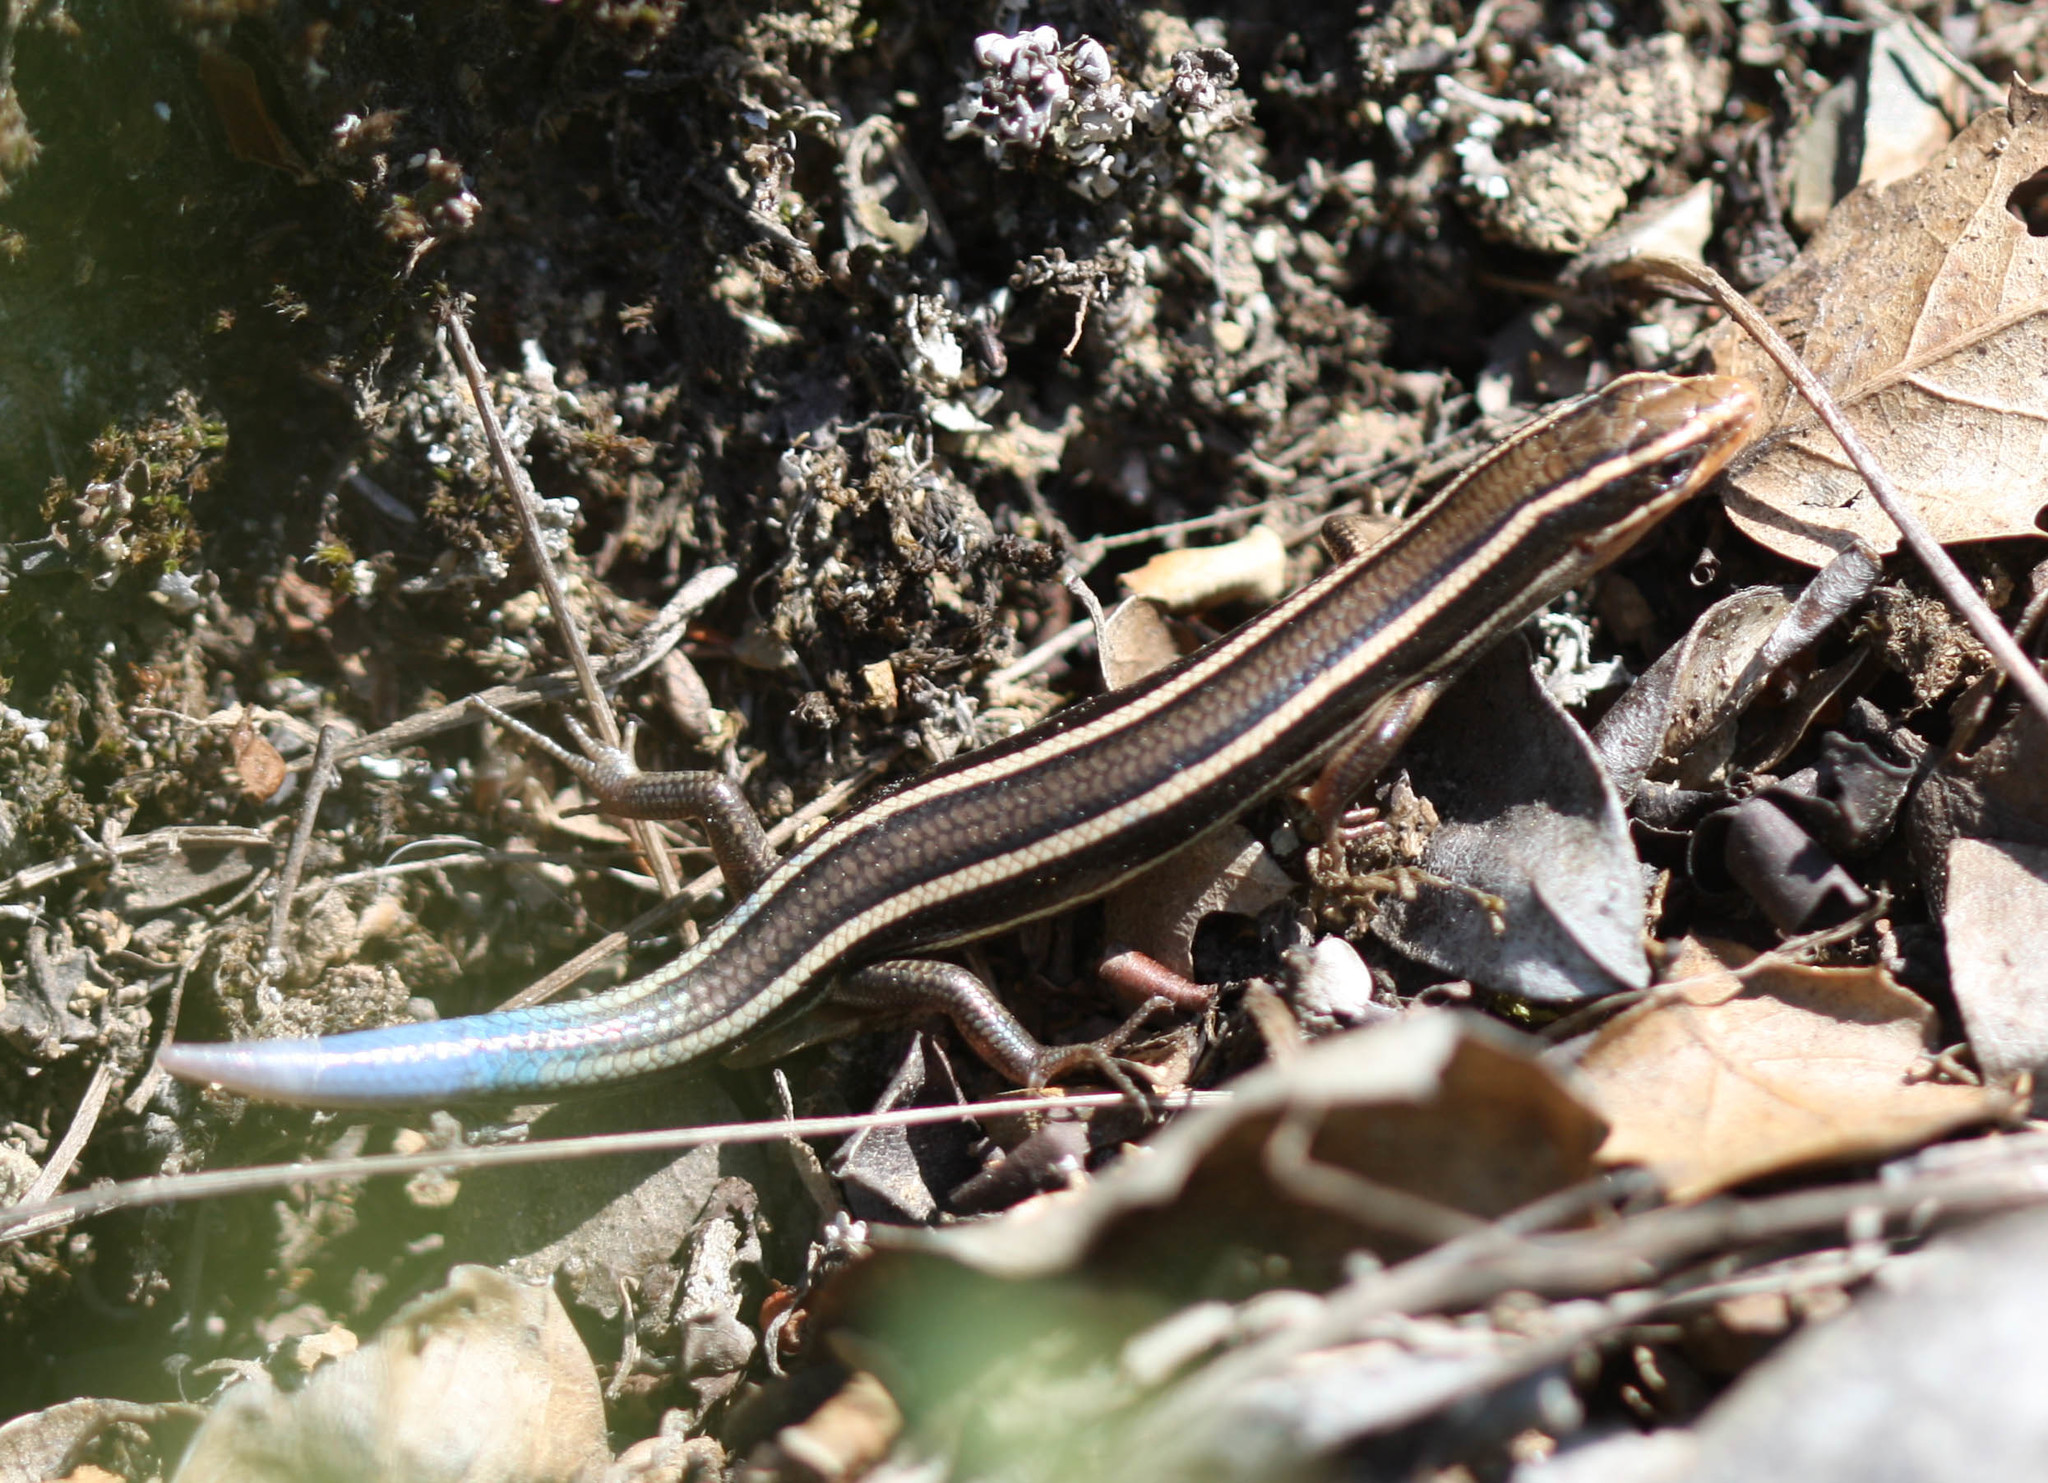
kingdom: Animalia
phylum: Chordata
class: Squamata
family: Scincidae
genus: Plestiodon
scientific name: Plestiodon skiltonianus
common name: Coronado island skink [interparietalis]
